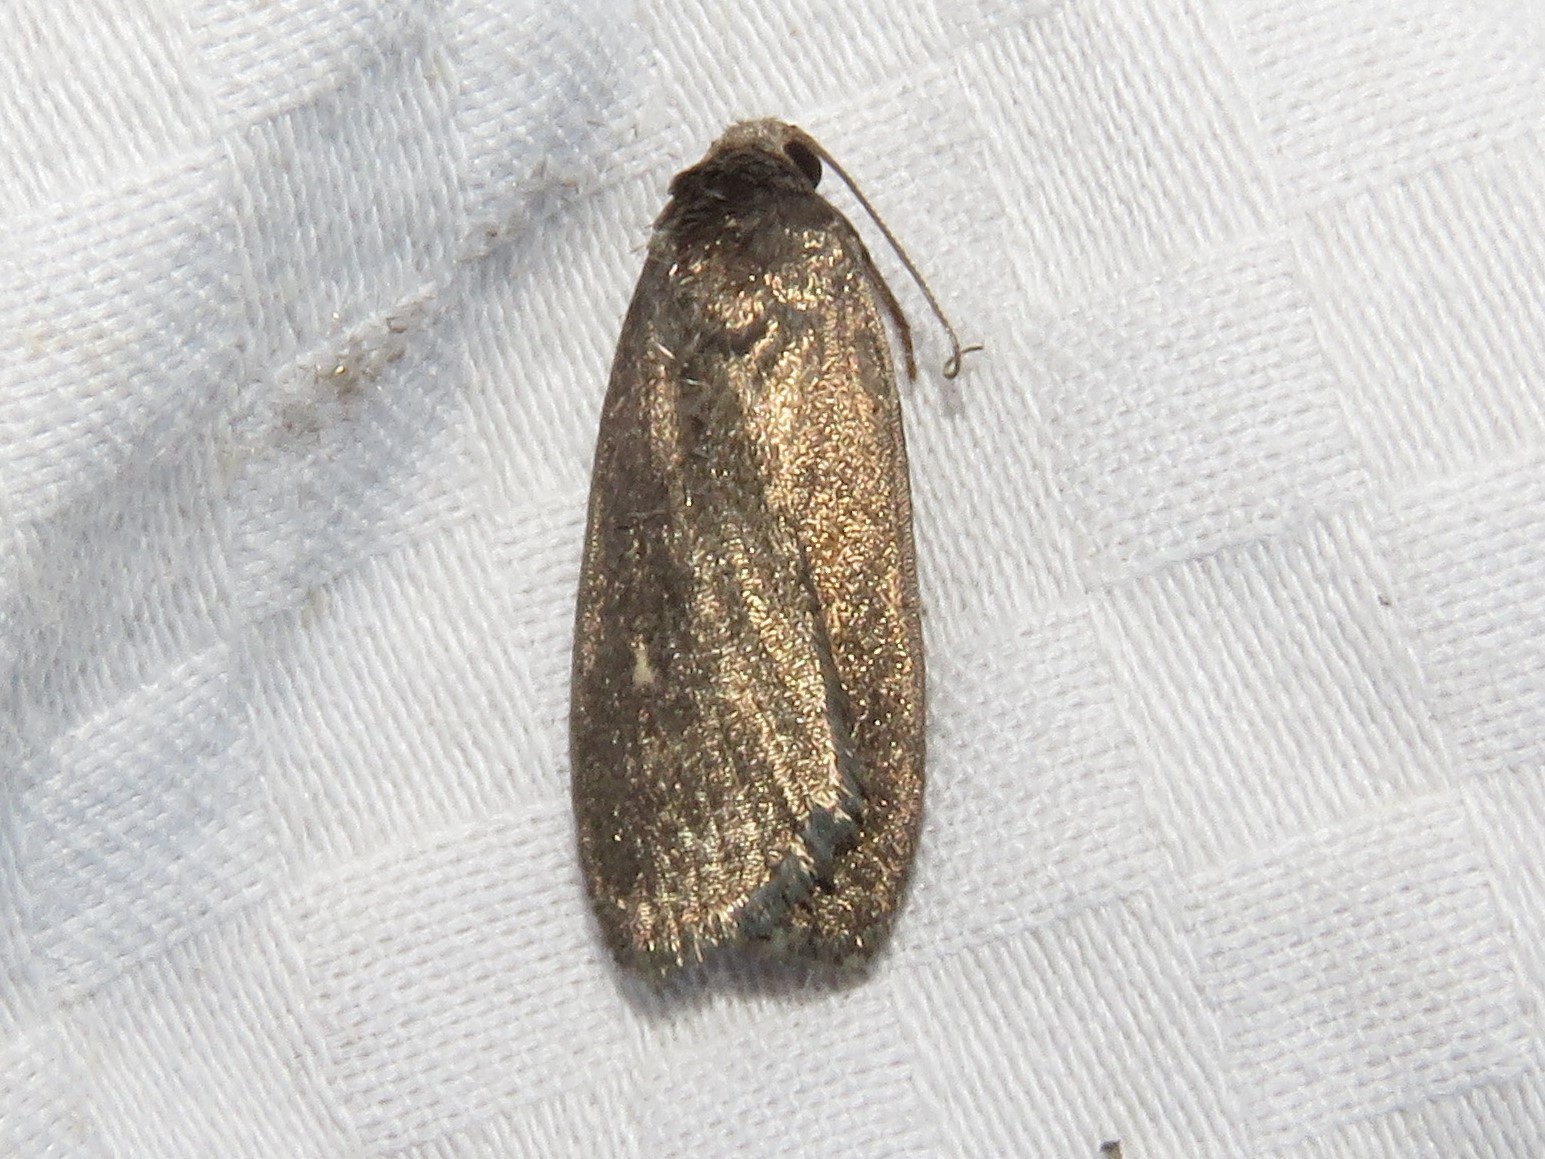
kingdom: Animalia
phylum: Arthropoda
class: Insecta
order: Lepidoptera
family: Noctuidae
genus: Proxenus
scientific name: Proxenus miranda
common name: Miranda moth
